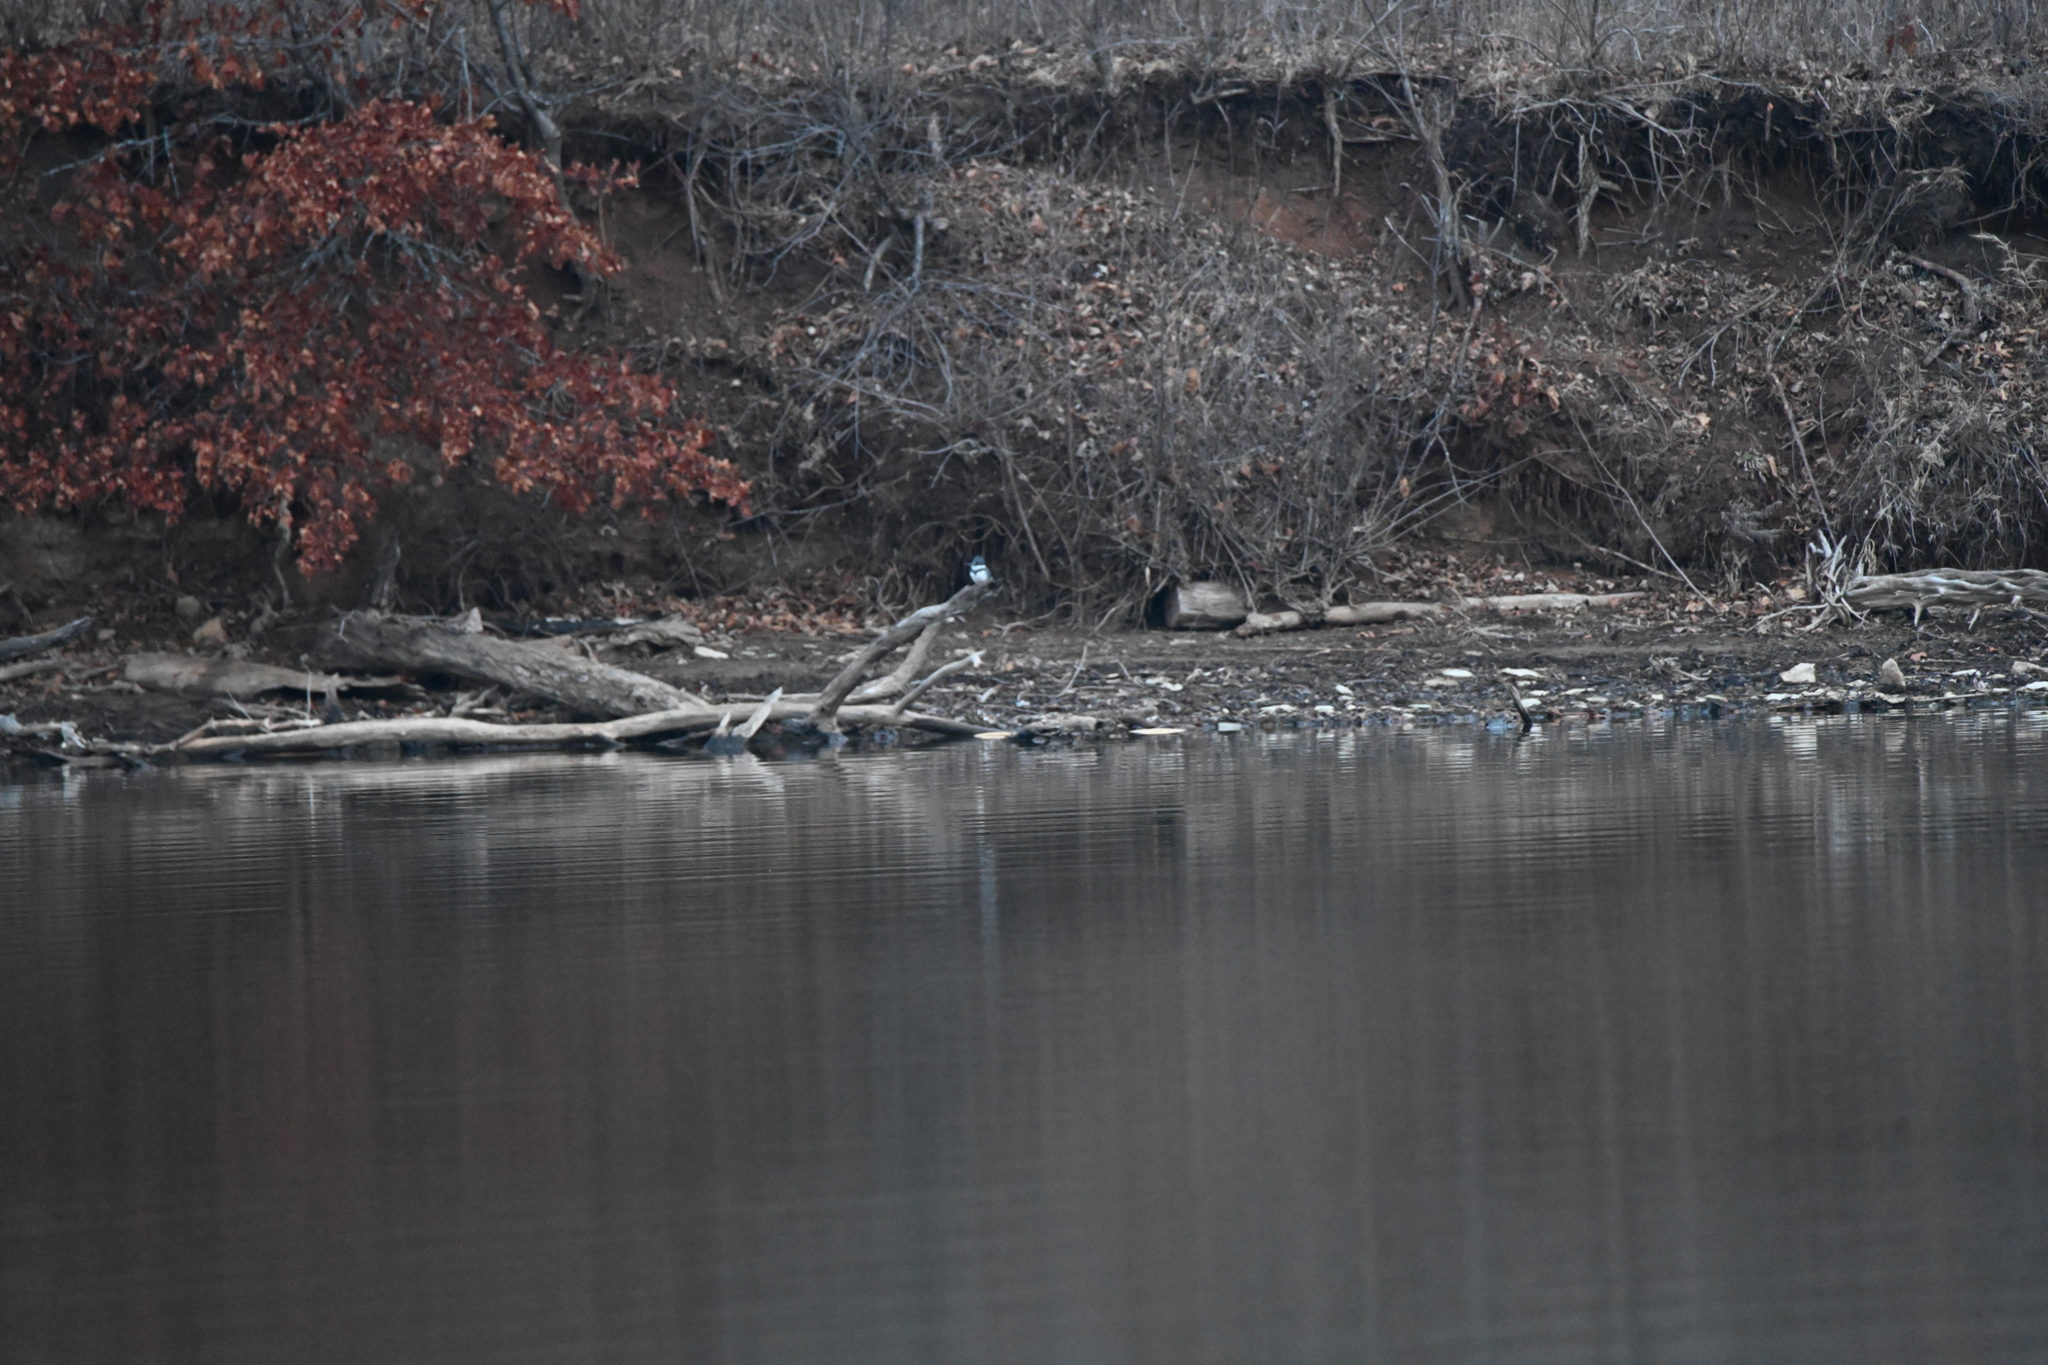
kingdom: Animalia
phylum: Chordata
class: Aves
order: Coraciiformes
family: Alcedinidae
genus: Megaceryle
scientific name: Megaceryle alcyon
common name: Belted kingfisher
